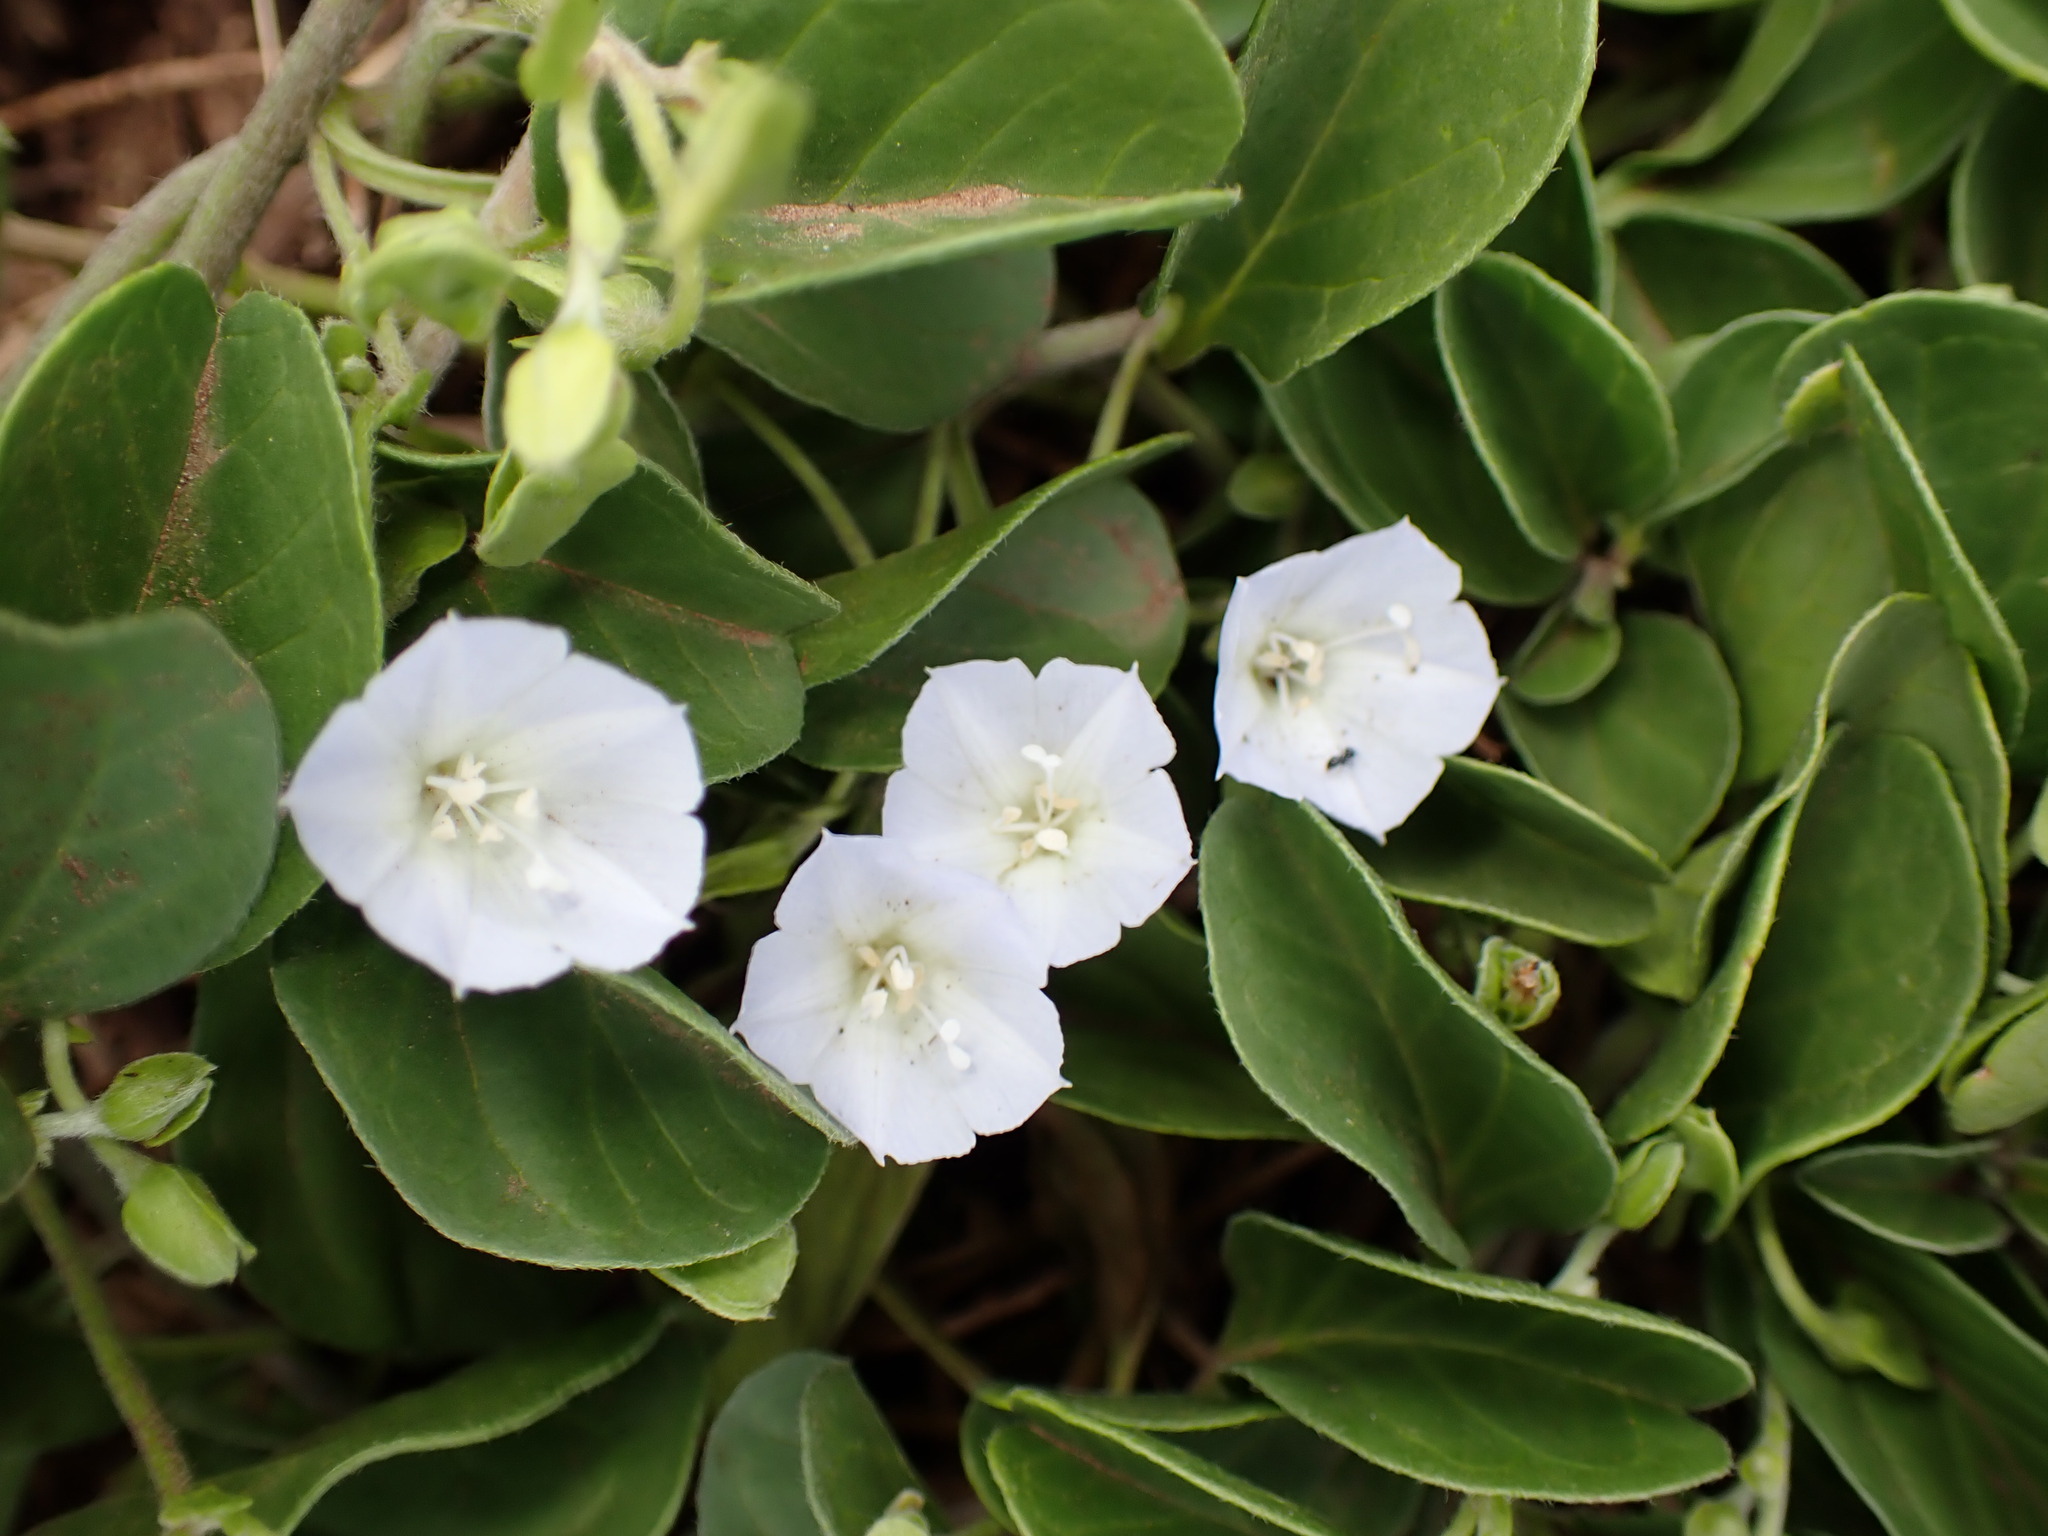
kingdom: Plantae
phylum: Tracheophyta
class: Magnoliopsida
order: Solanales
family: Convolvulaceae
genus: Jacquemontia
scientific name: Jacquemontia sandwicensis
